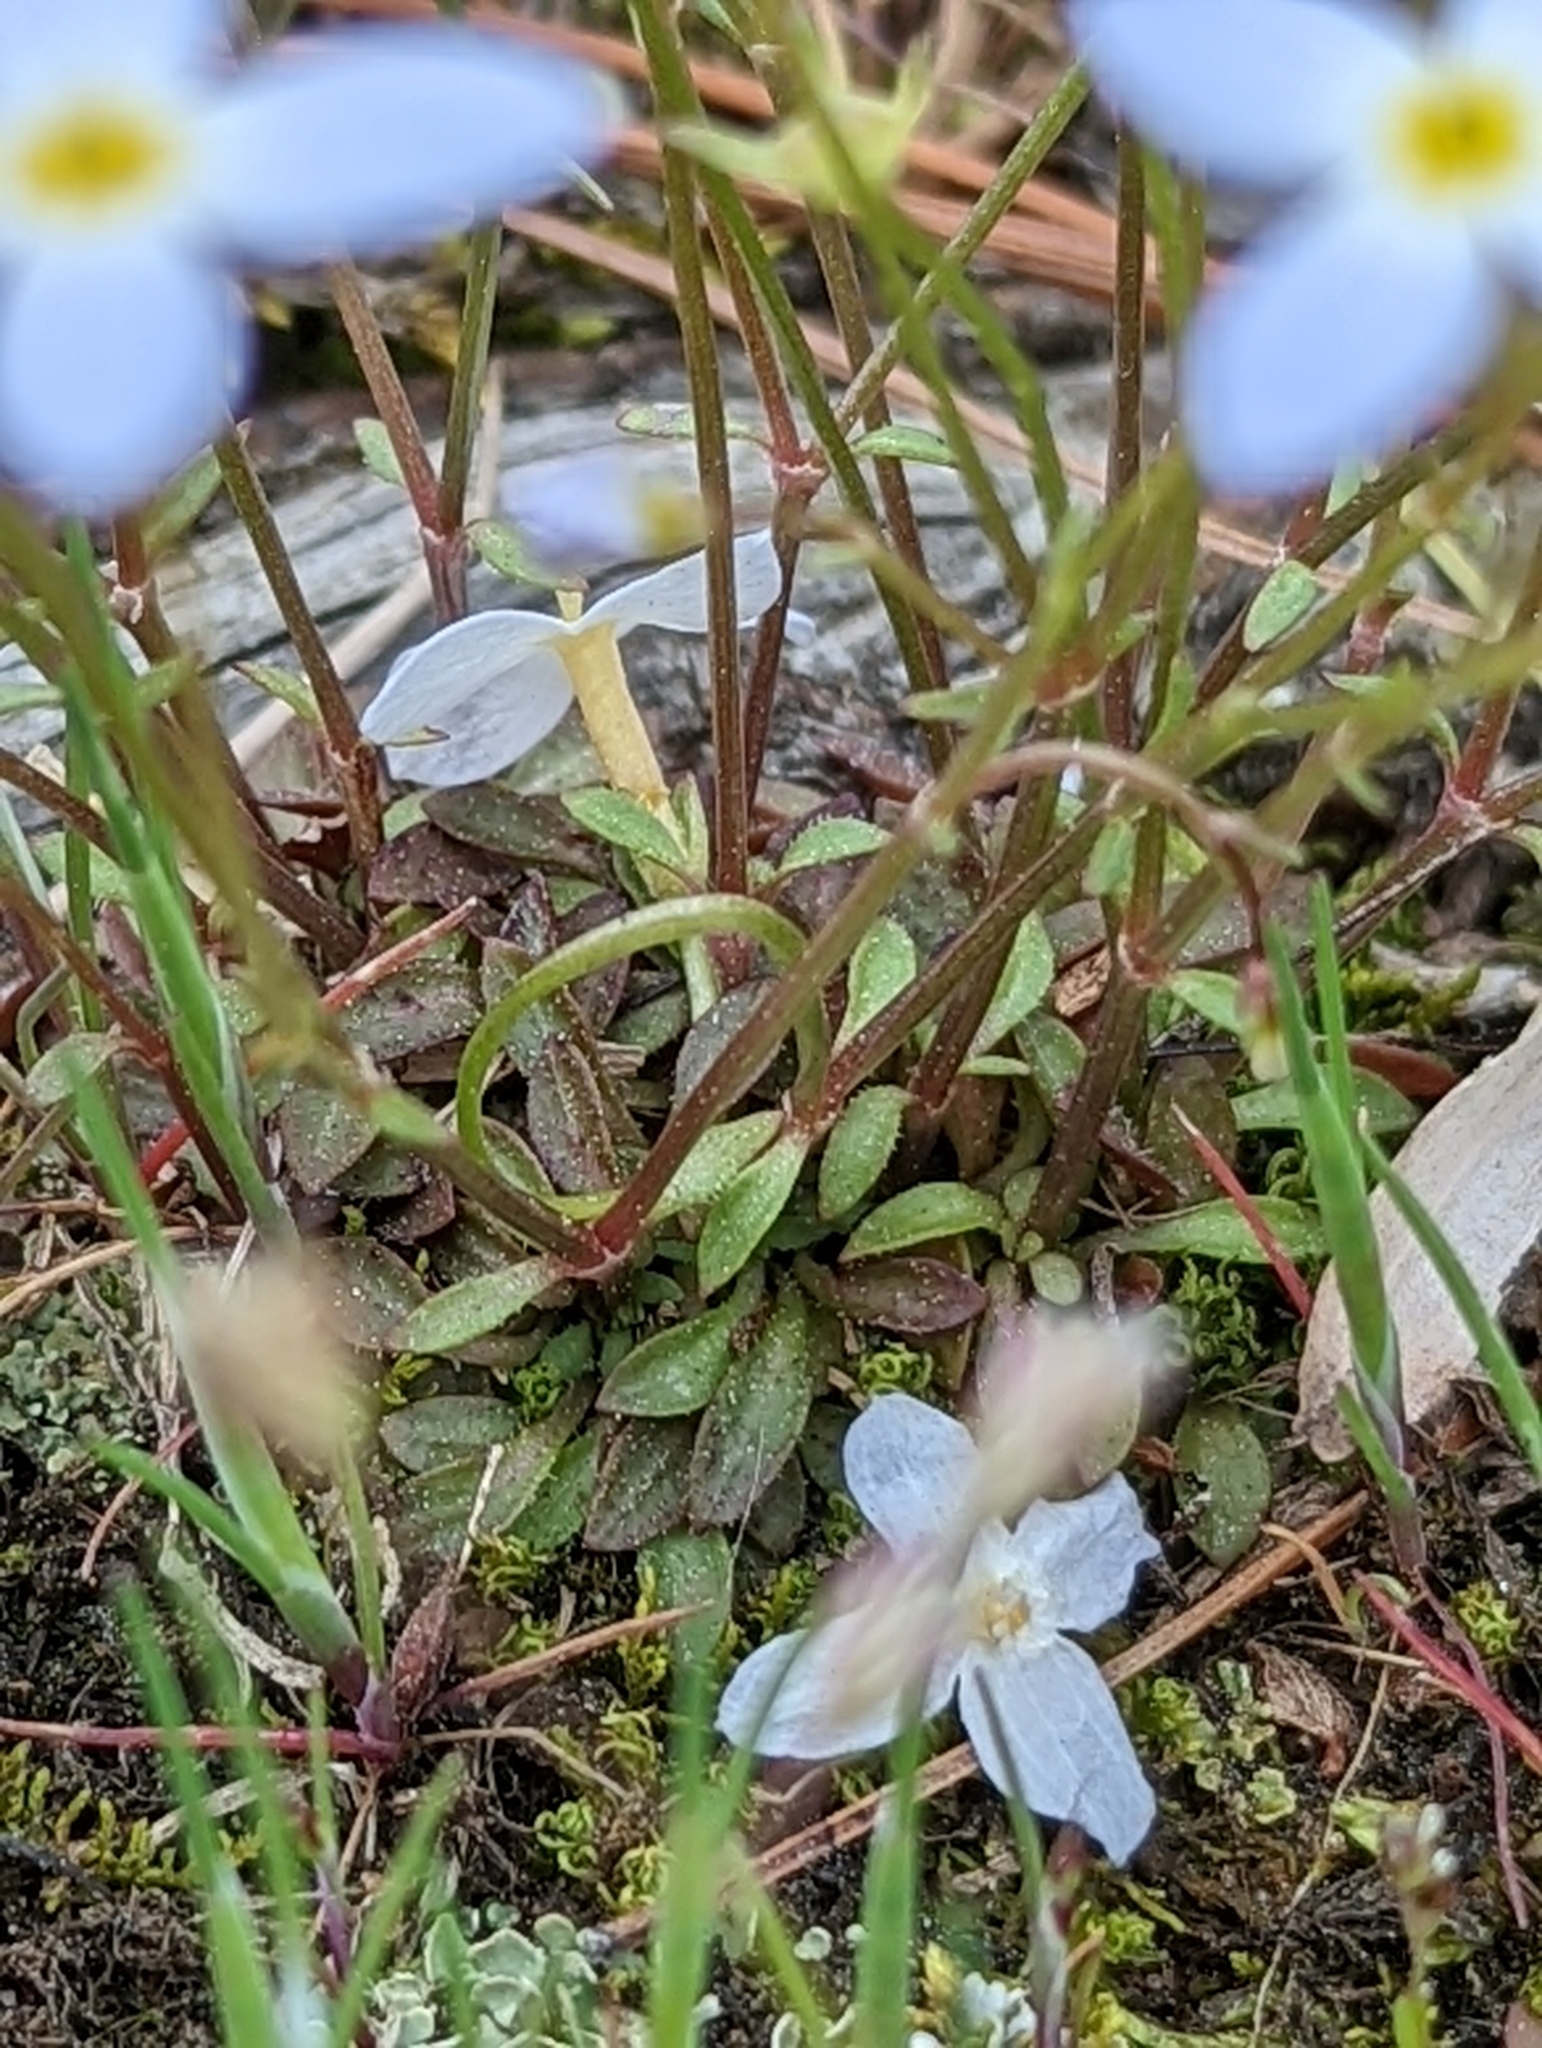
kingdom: Plantae
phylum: Tracheophyta
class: Magnoliopsida
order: Gentianales
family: Rubiaceae
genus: Houstonia
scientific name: Houstonia caerulea
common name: Bluets
